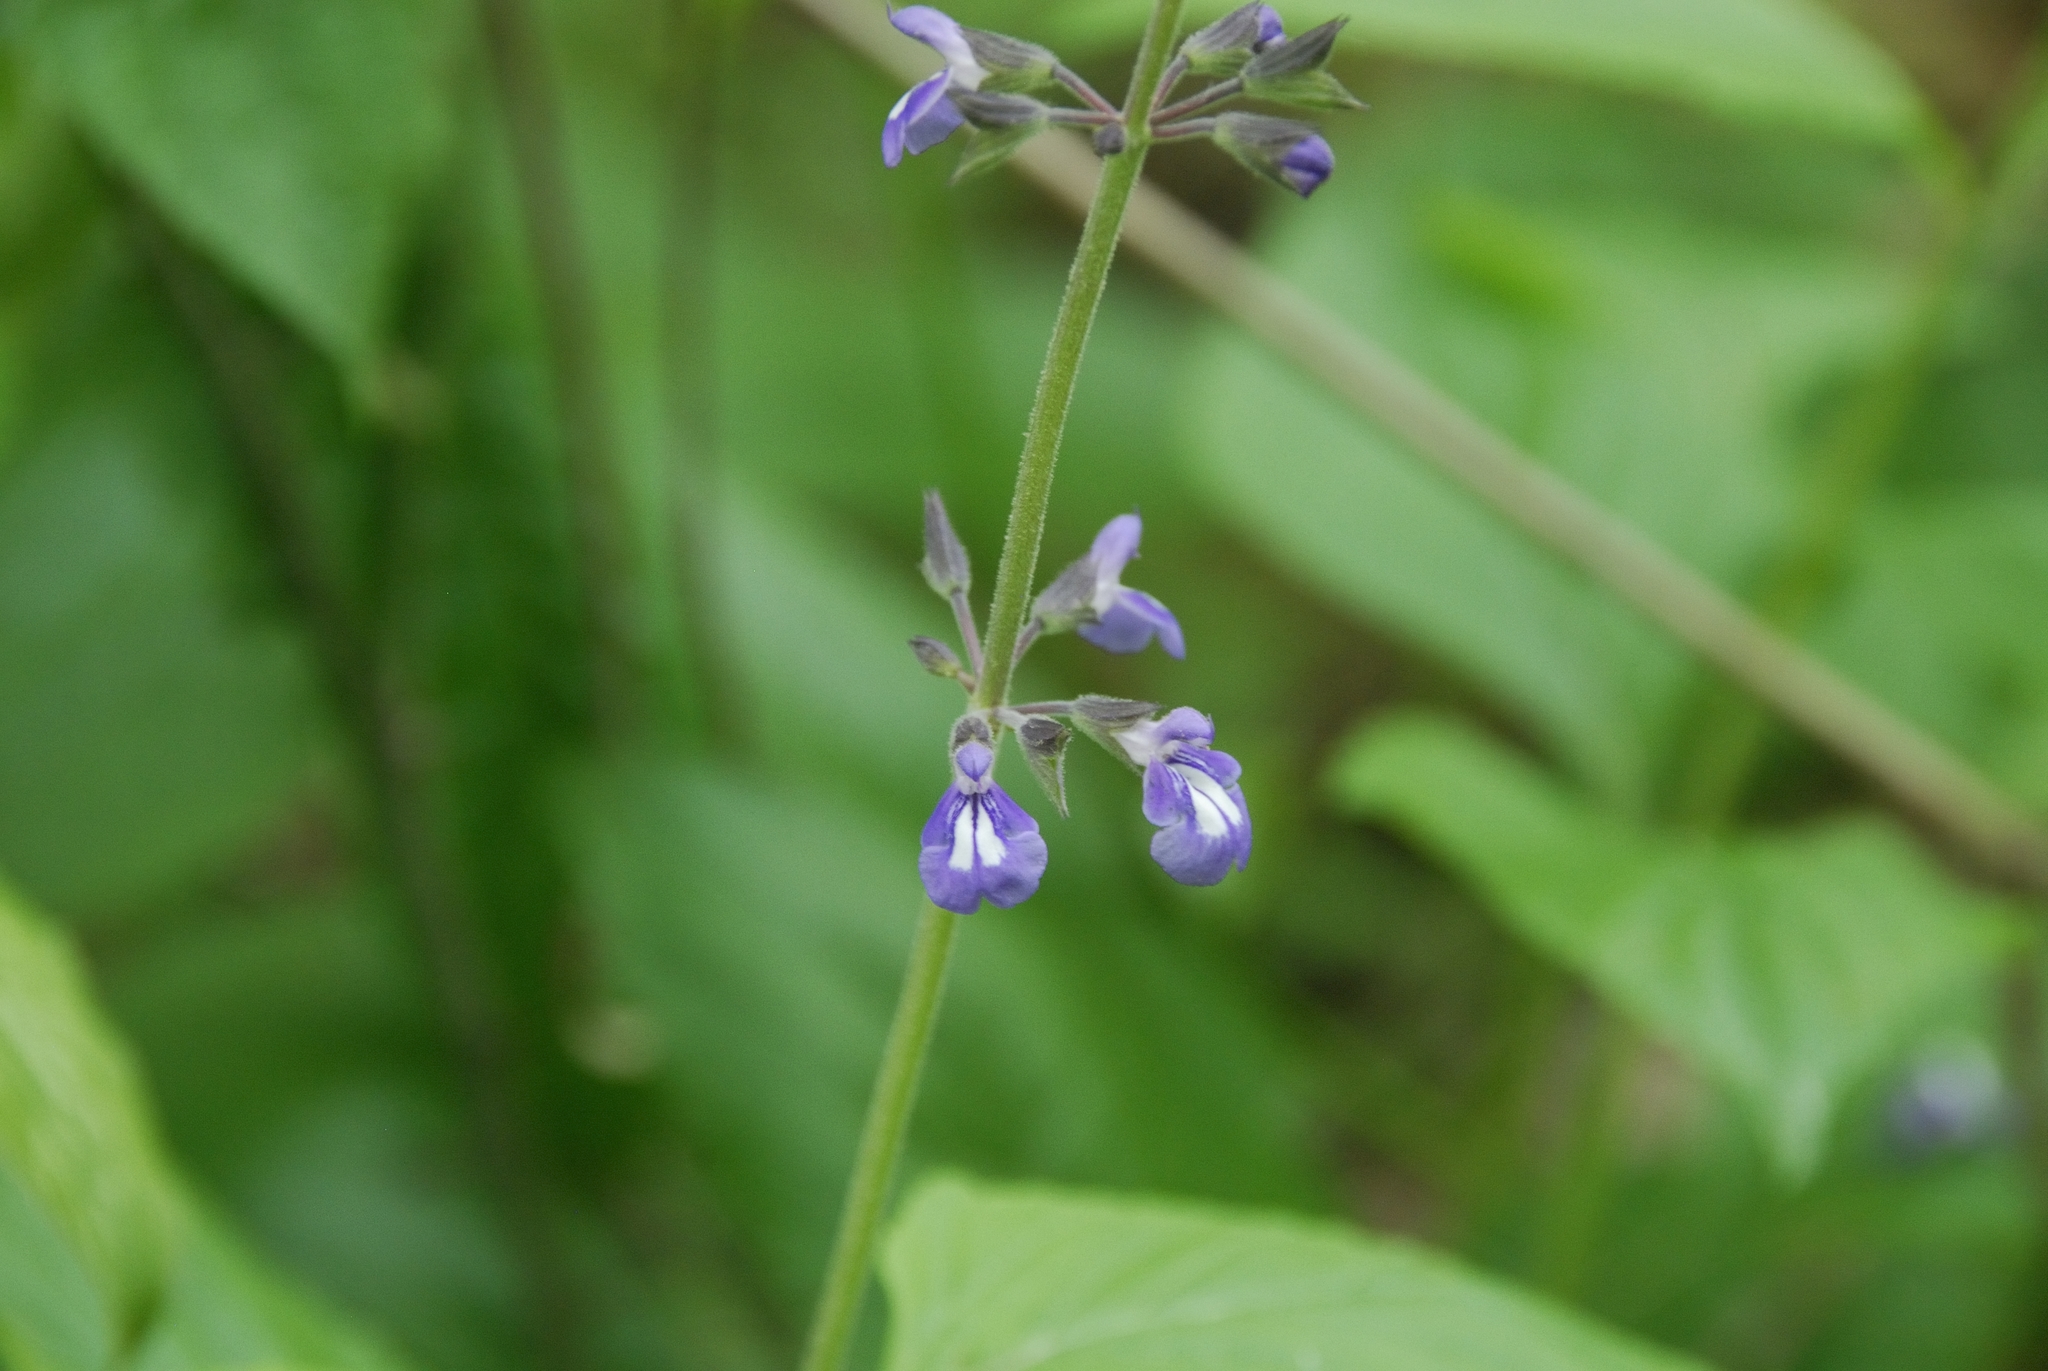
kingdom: Plantae
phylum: Tracheophyta
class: Magnoliopsida
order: Lamiales
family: Lamiaceae
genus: Salvia
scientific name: Salvia urticifolia
